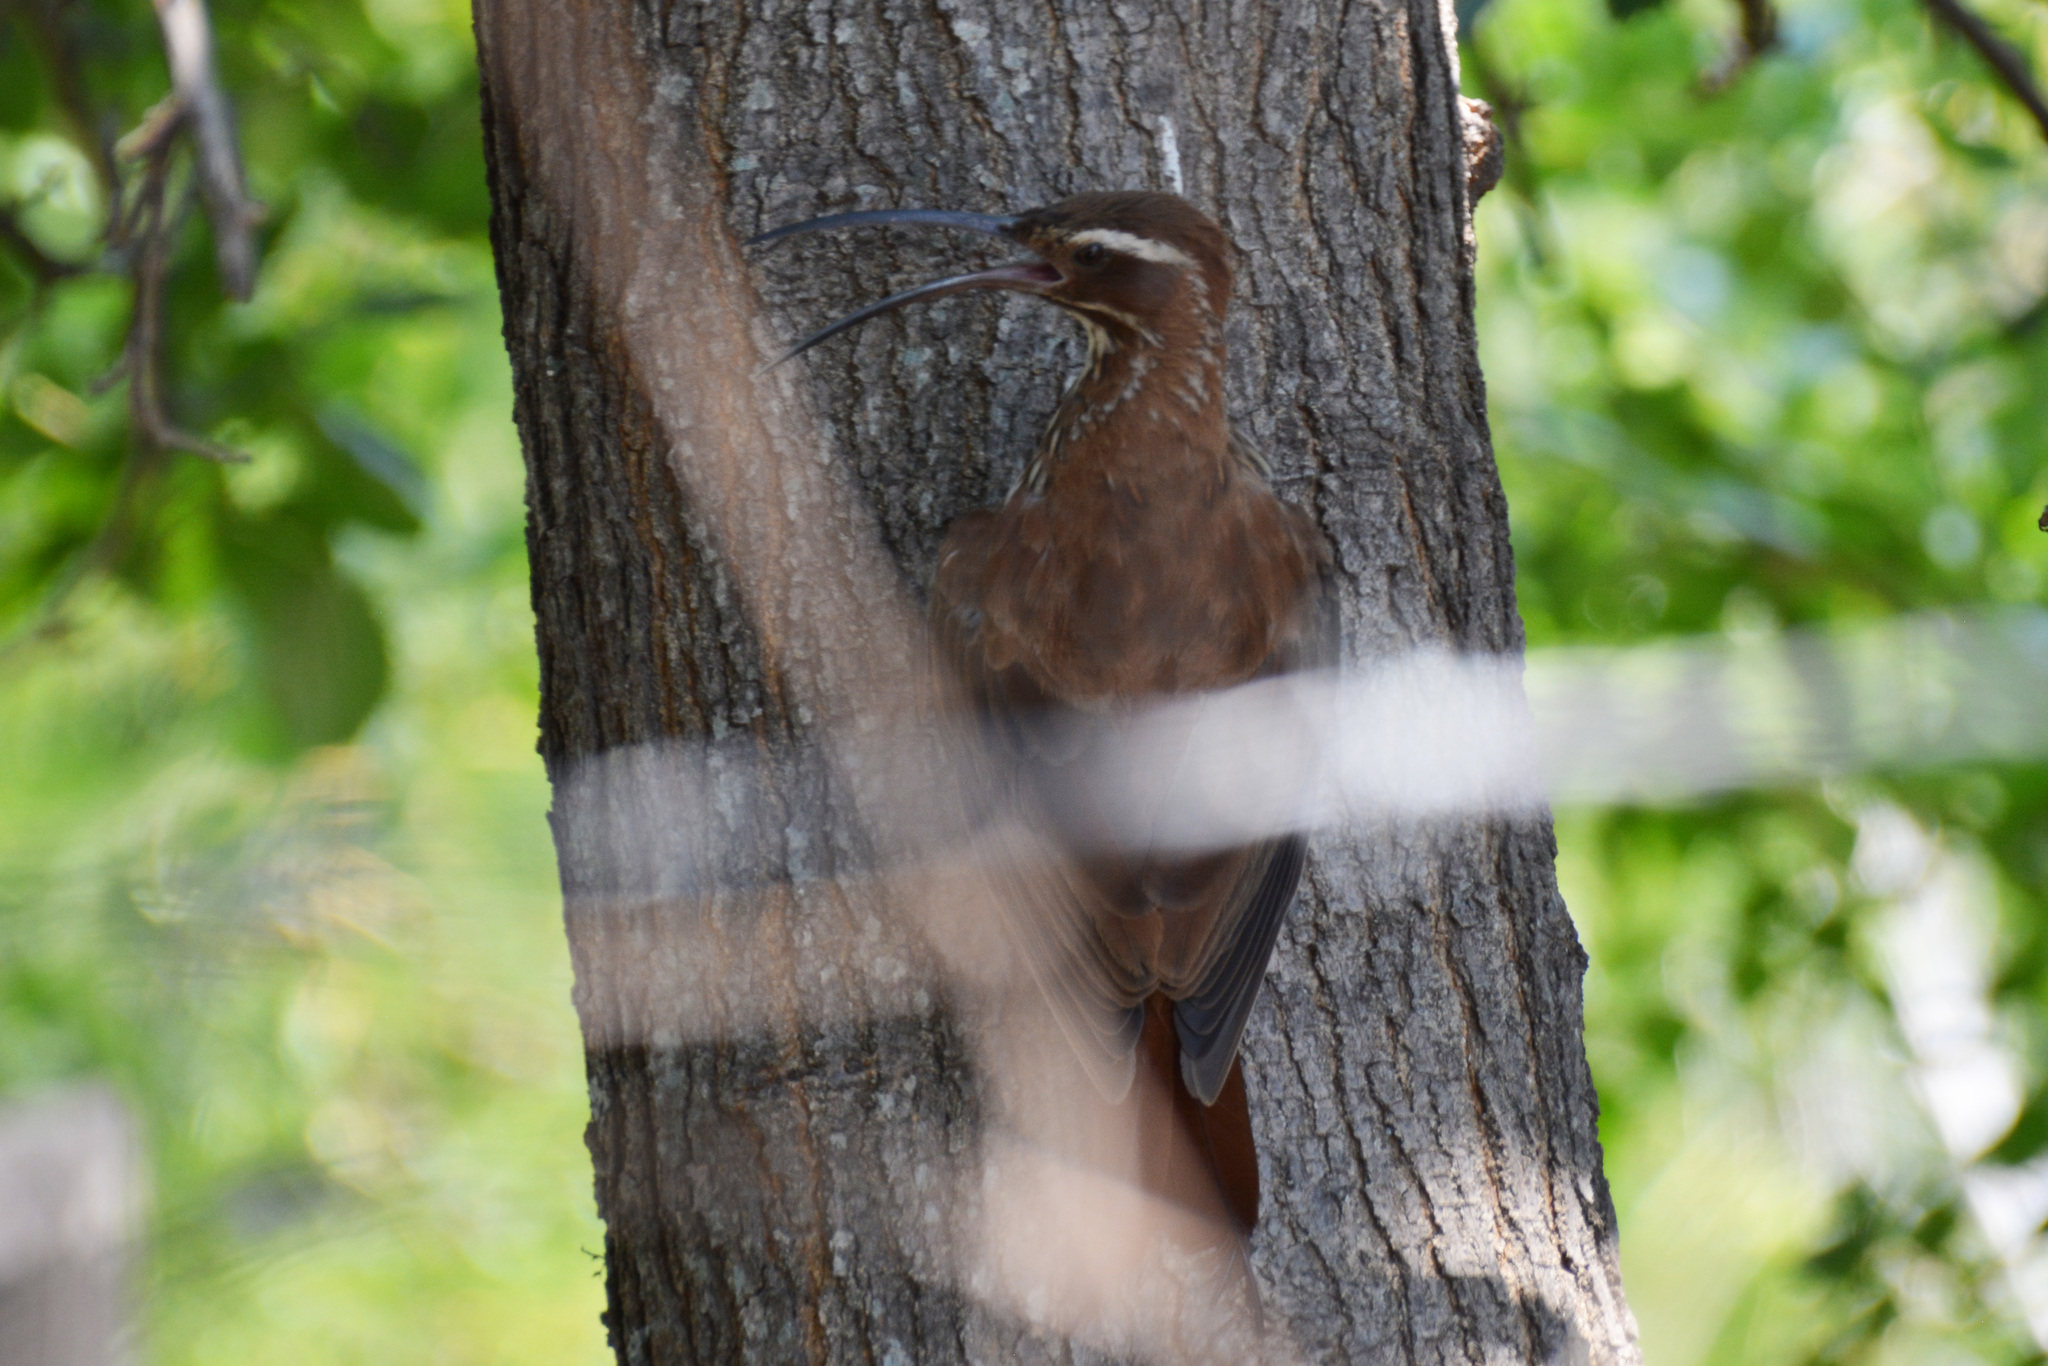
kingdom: Animalia
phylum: Chordata
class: Aves
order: Passeriformes
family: Furnariidae
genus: Drymornis
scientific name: Drymornis bridgesii
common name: Scimitar-billed woodcreeper
